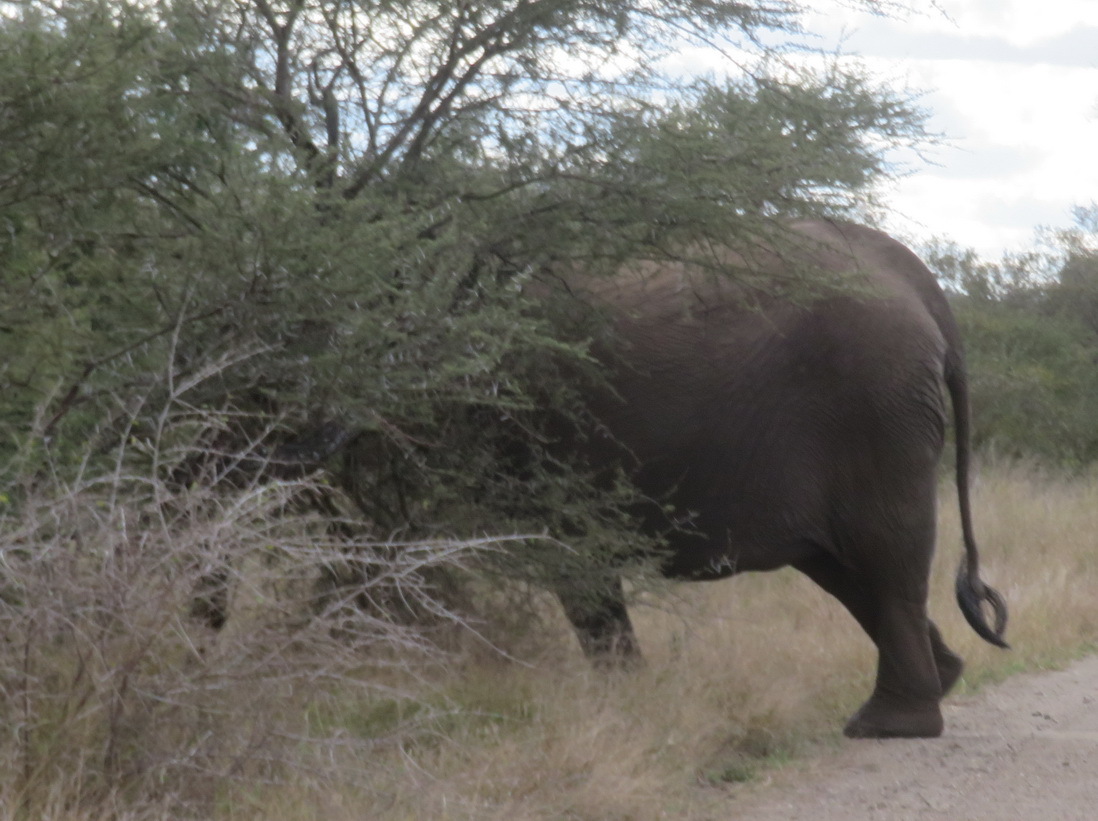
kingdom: Animalia
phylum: Chordata
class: Mammalia
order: Proboscidea
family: Elephantidae
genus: Loxodonta
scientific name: Loxodonta africana
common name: African elephant
